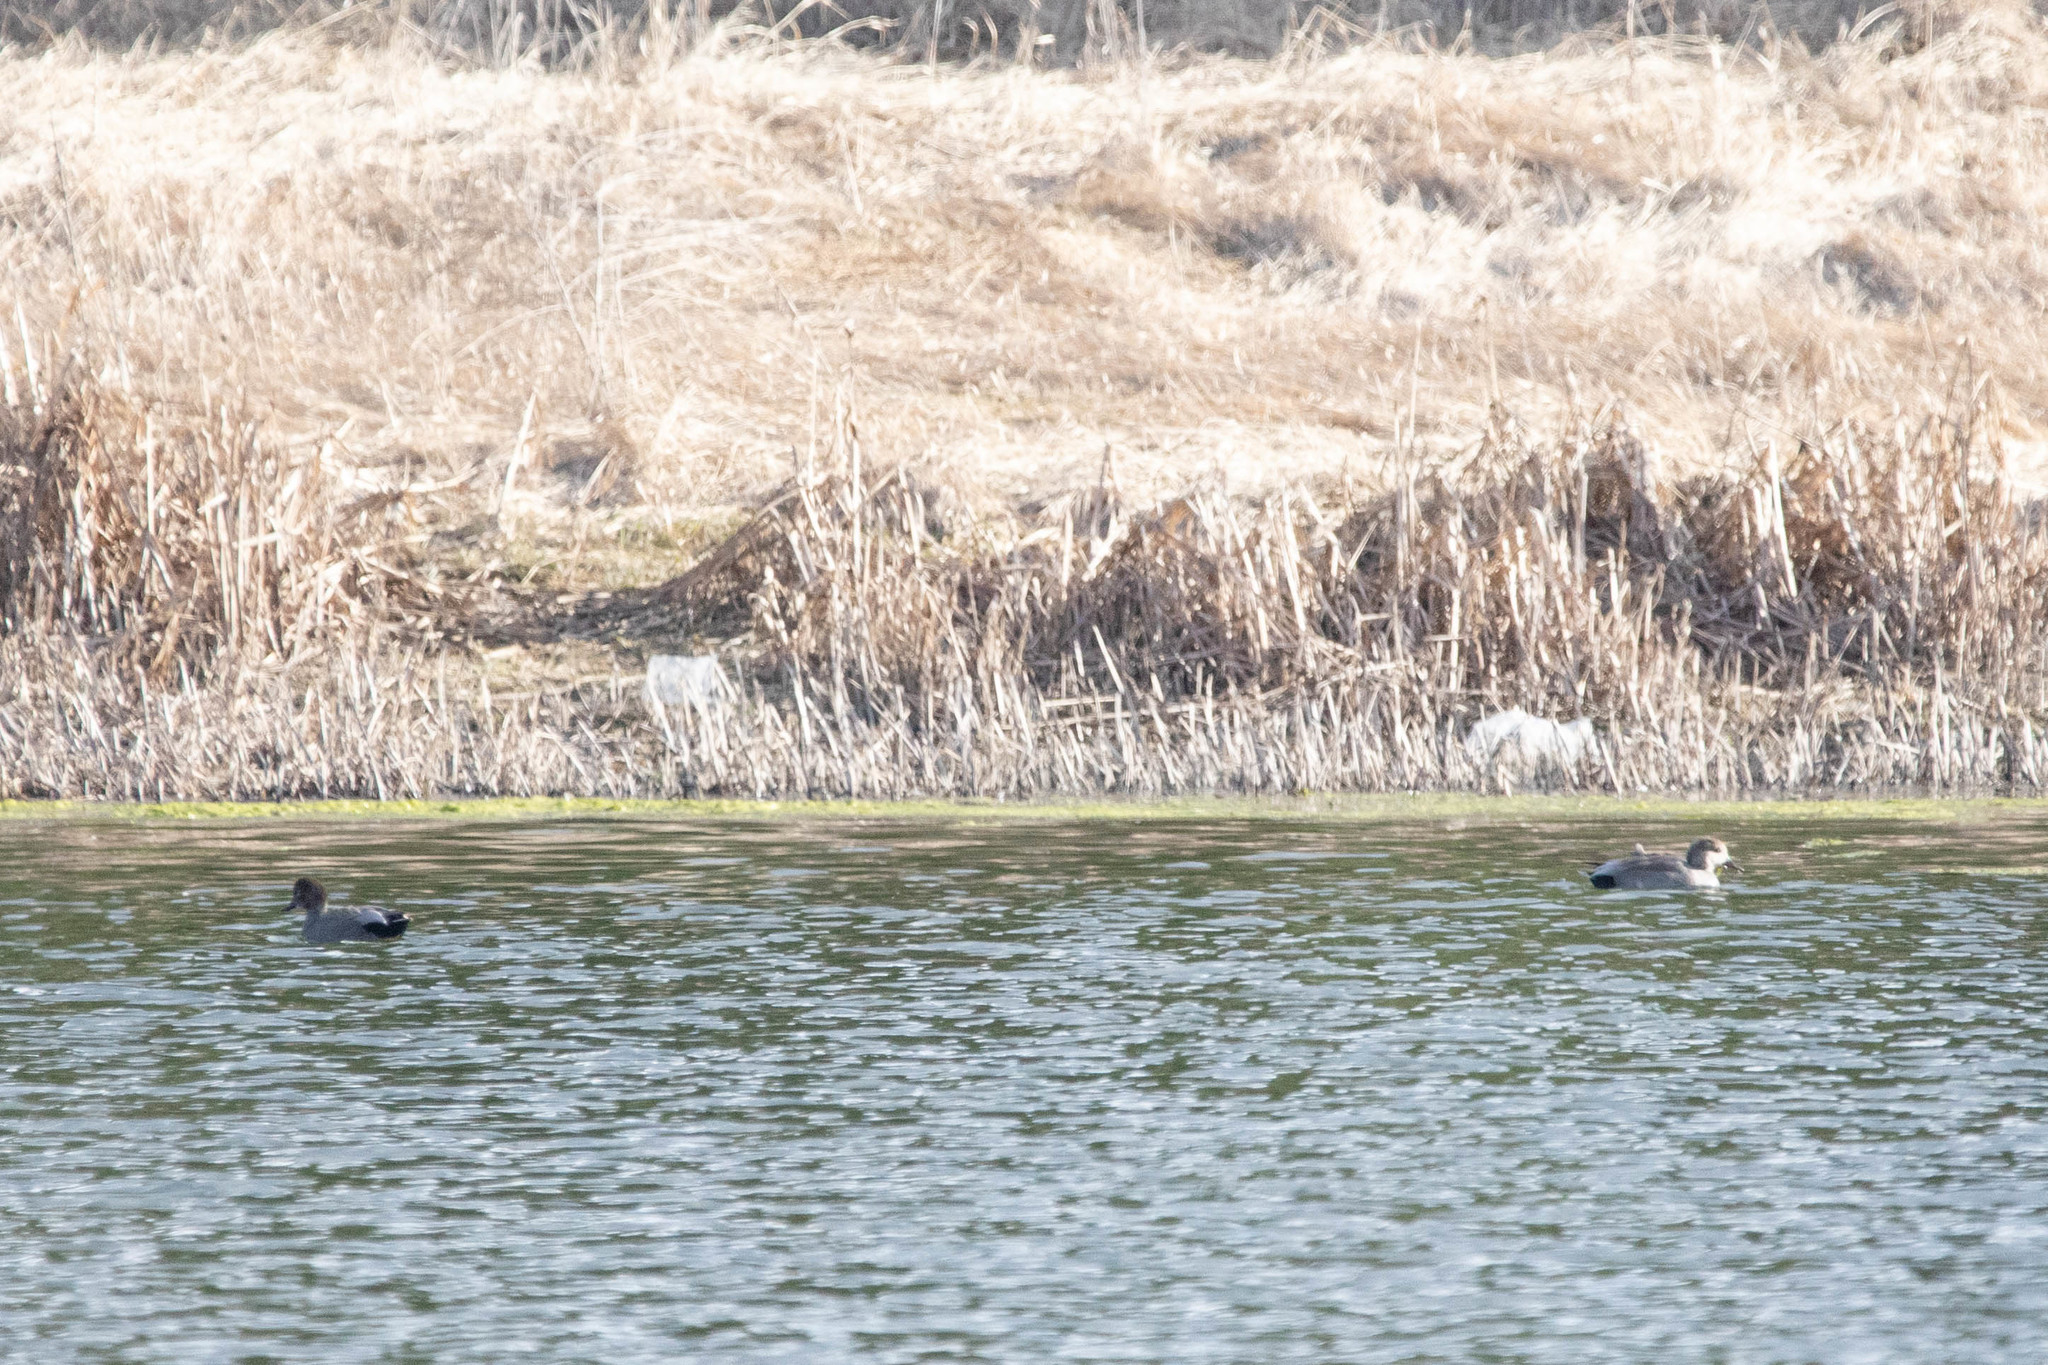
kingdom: Animalia
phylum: Chordata
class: Aves
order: Anseriformes
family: Anatidae
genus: Mareca
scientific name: Mareca strepera
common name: Gadwall
